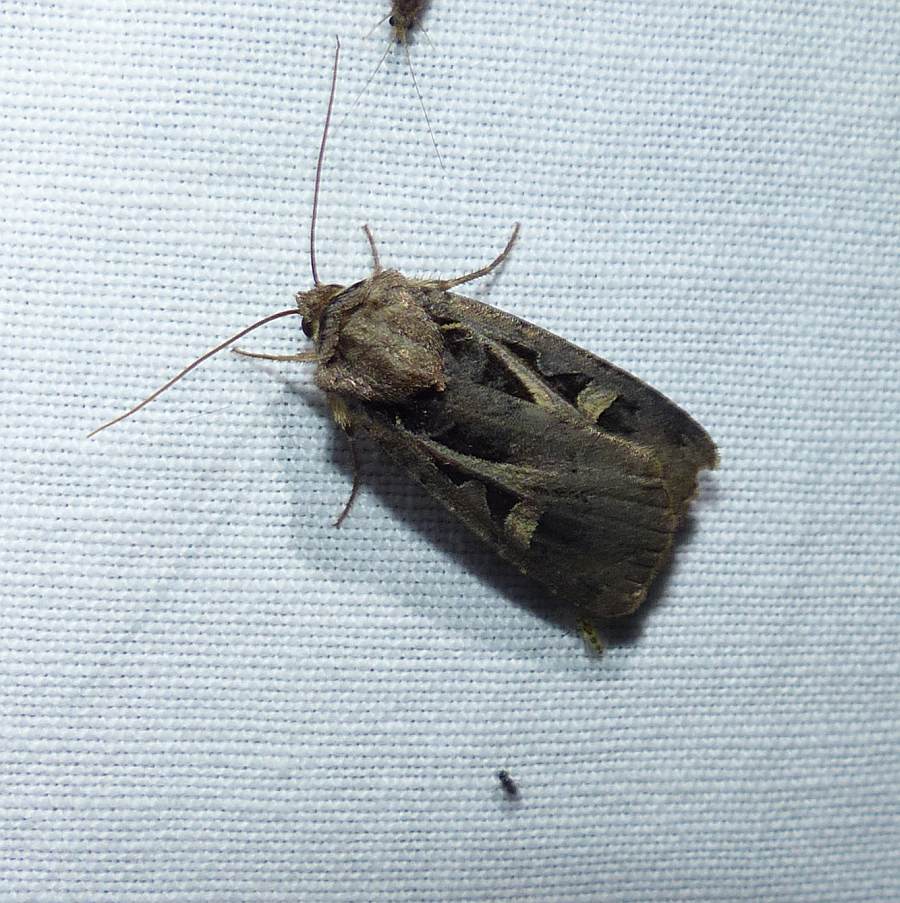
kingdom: Animalia
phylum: Arthropoda
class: Insecta
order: Lepidoptera
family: Noctuidae
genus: Feltia
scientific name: Feltia herilis
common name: Master's dart
